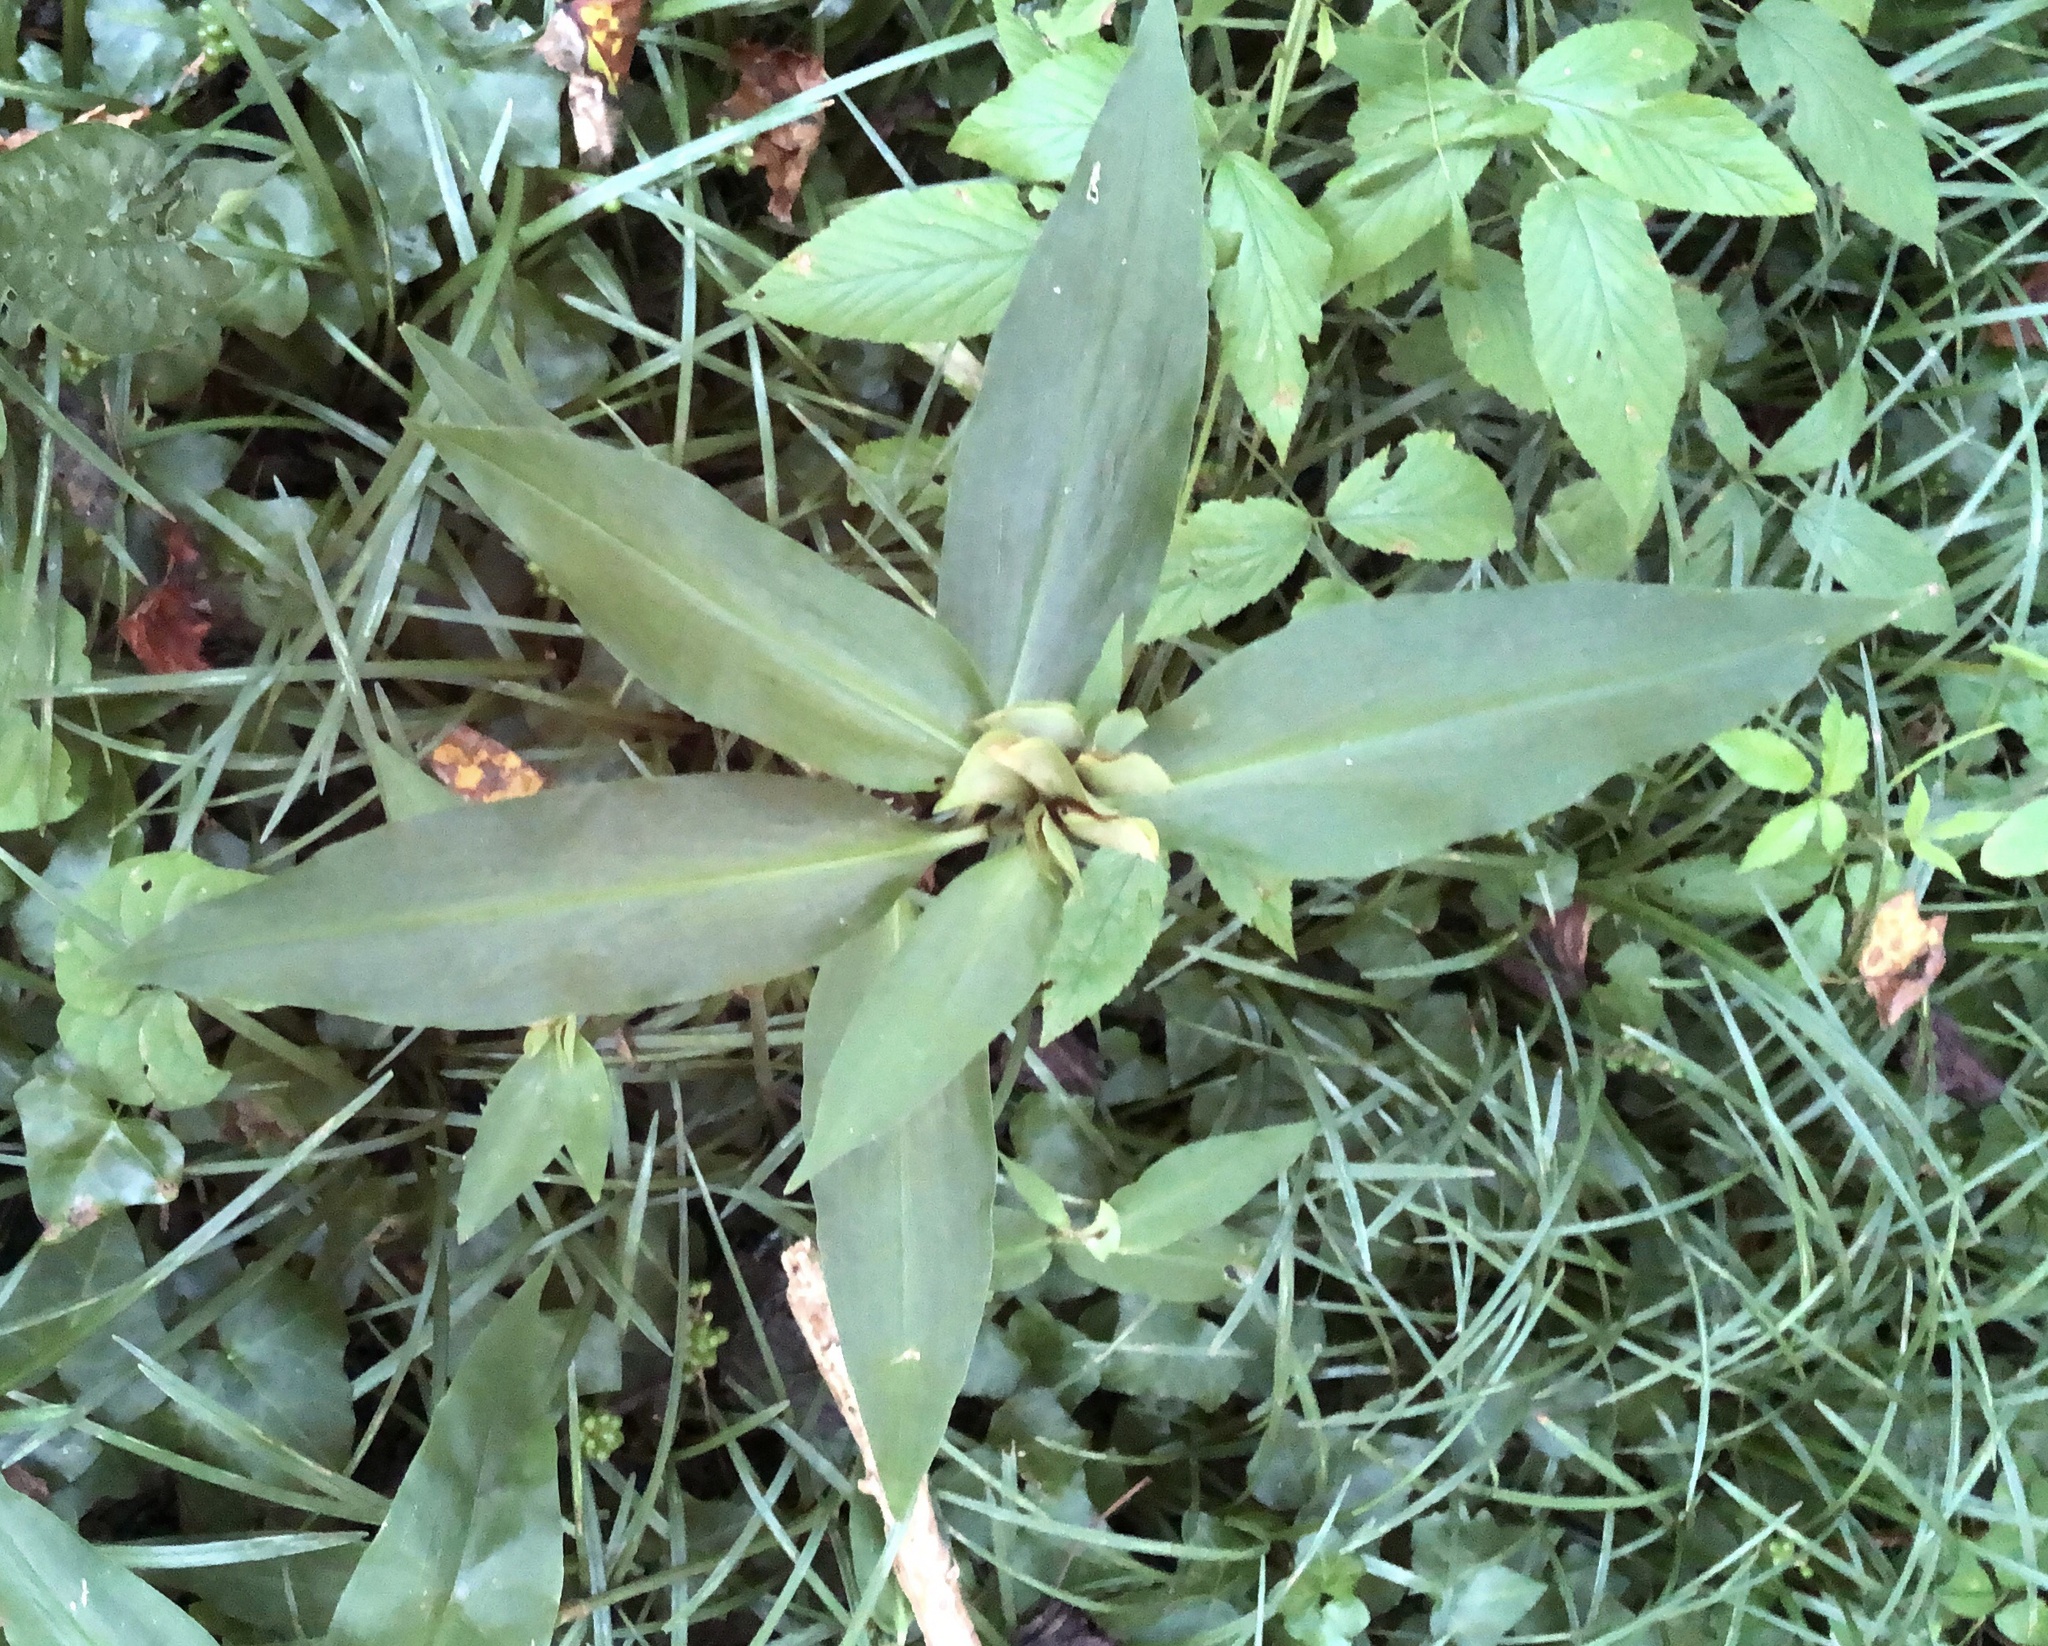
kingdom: Plantae
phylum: Tracheophyta
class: Liliopsida
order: Commelinales
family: Commelinaceae
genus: Commelina
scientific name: Commelina virginica
